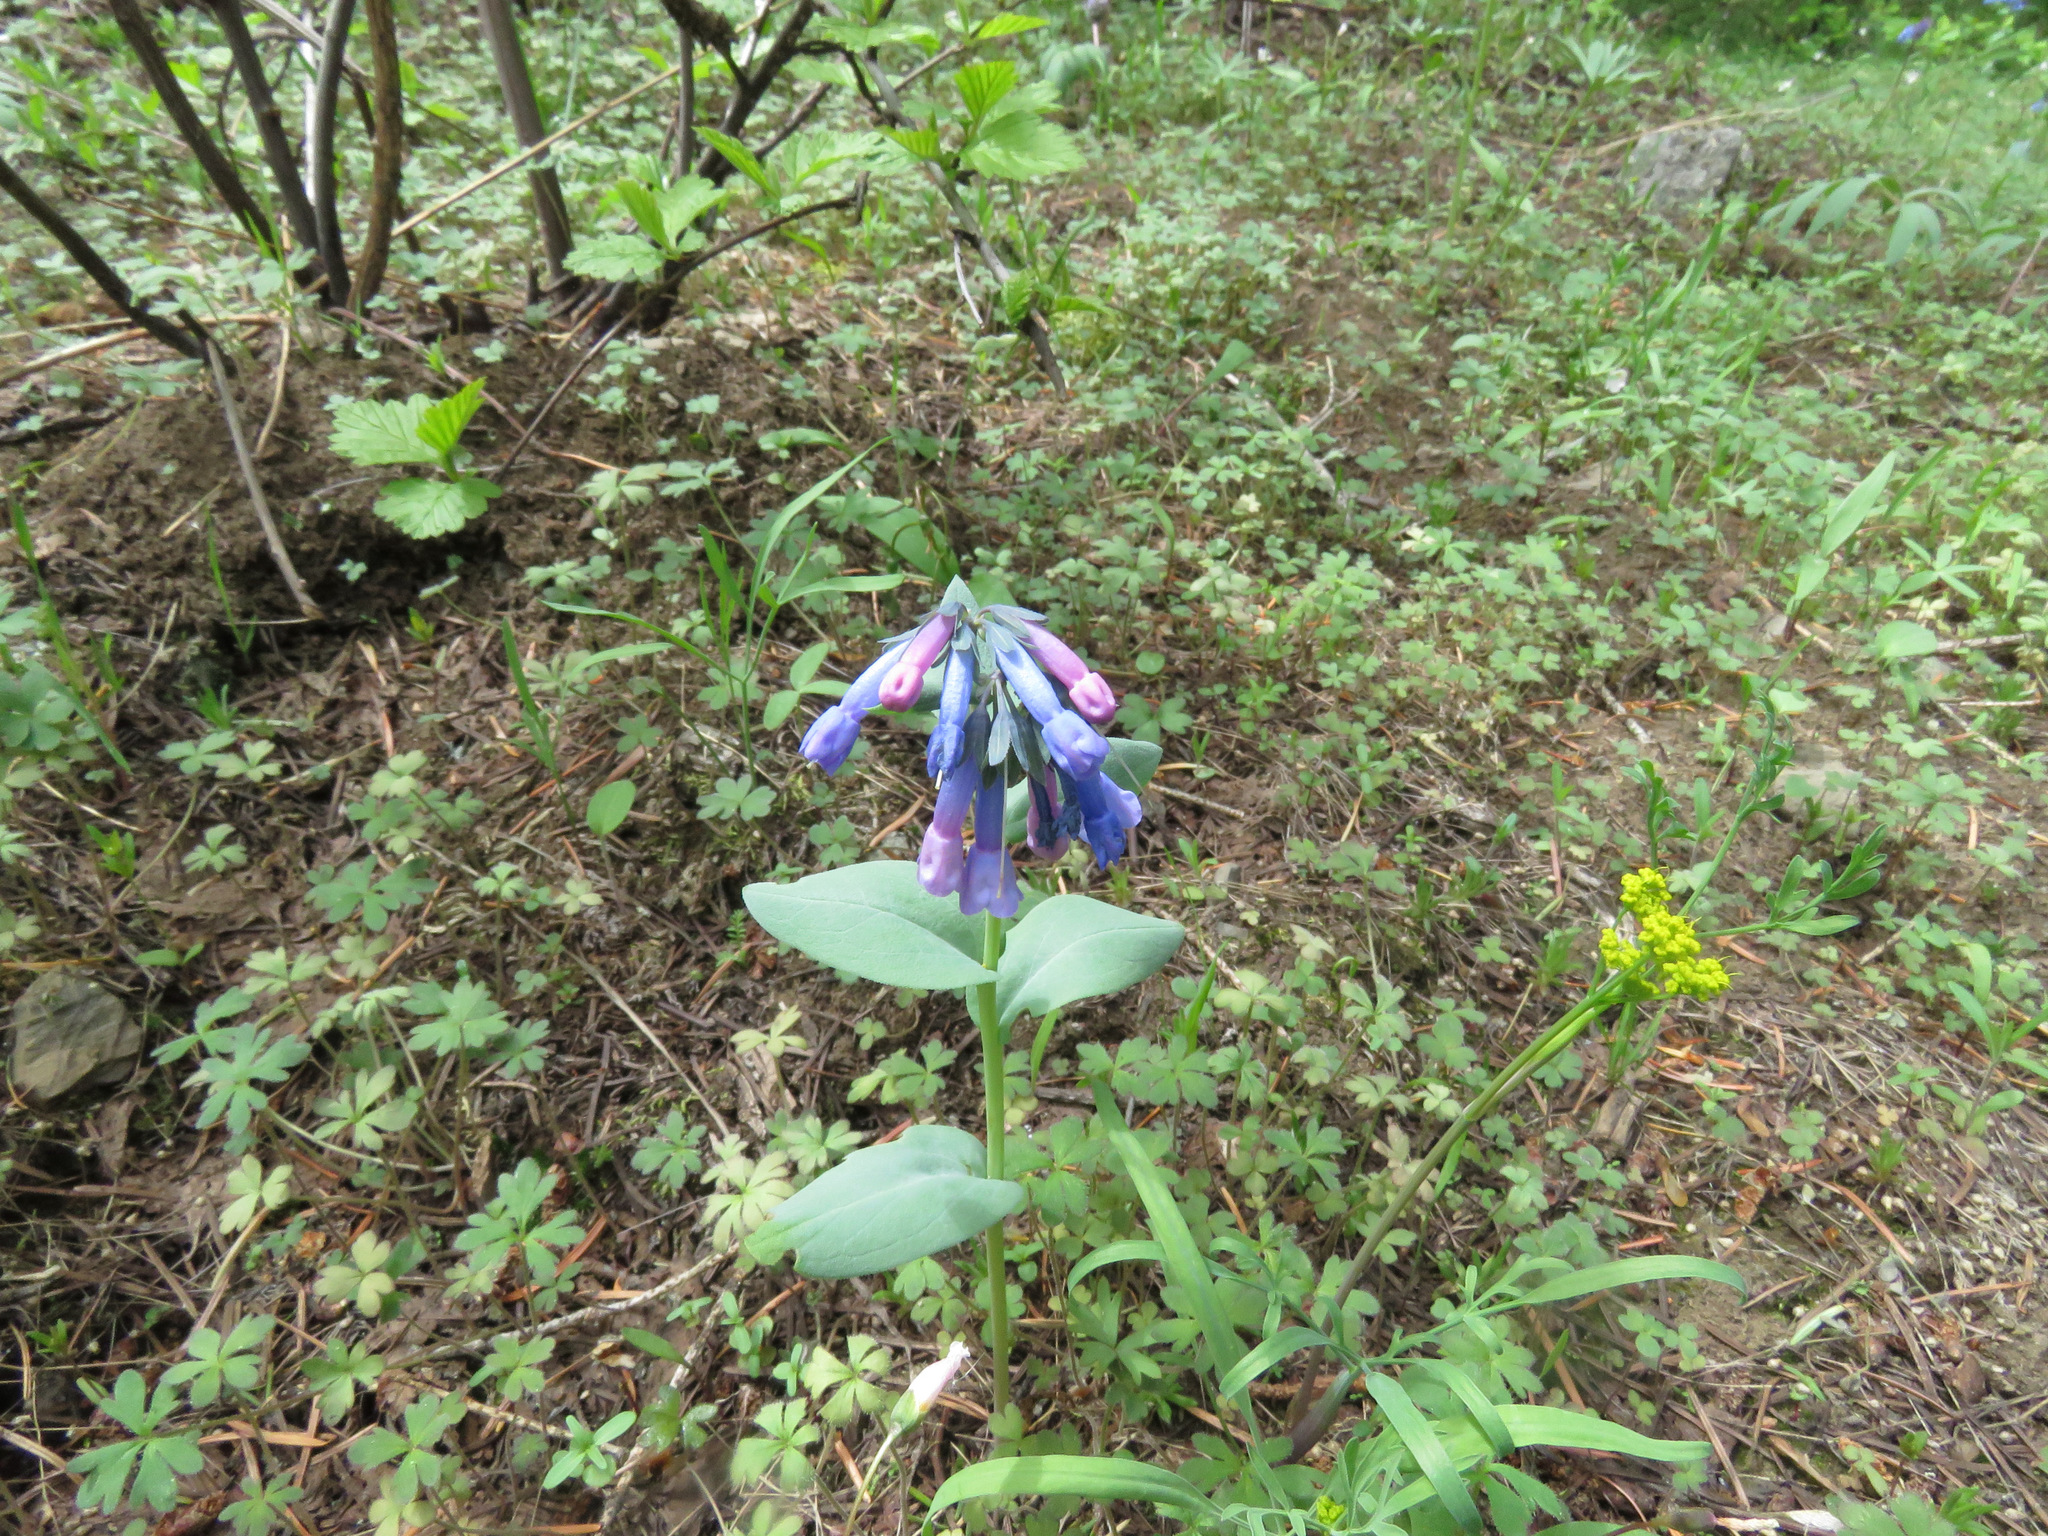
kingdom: Plantae
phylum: Tracheophyta
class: Magnoliopsida
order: Boraginales
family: Boraginaceae
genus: Mertensia
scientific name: Mertensia longiflora
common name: Large-flowered bluebells
